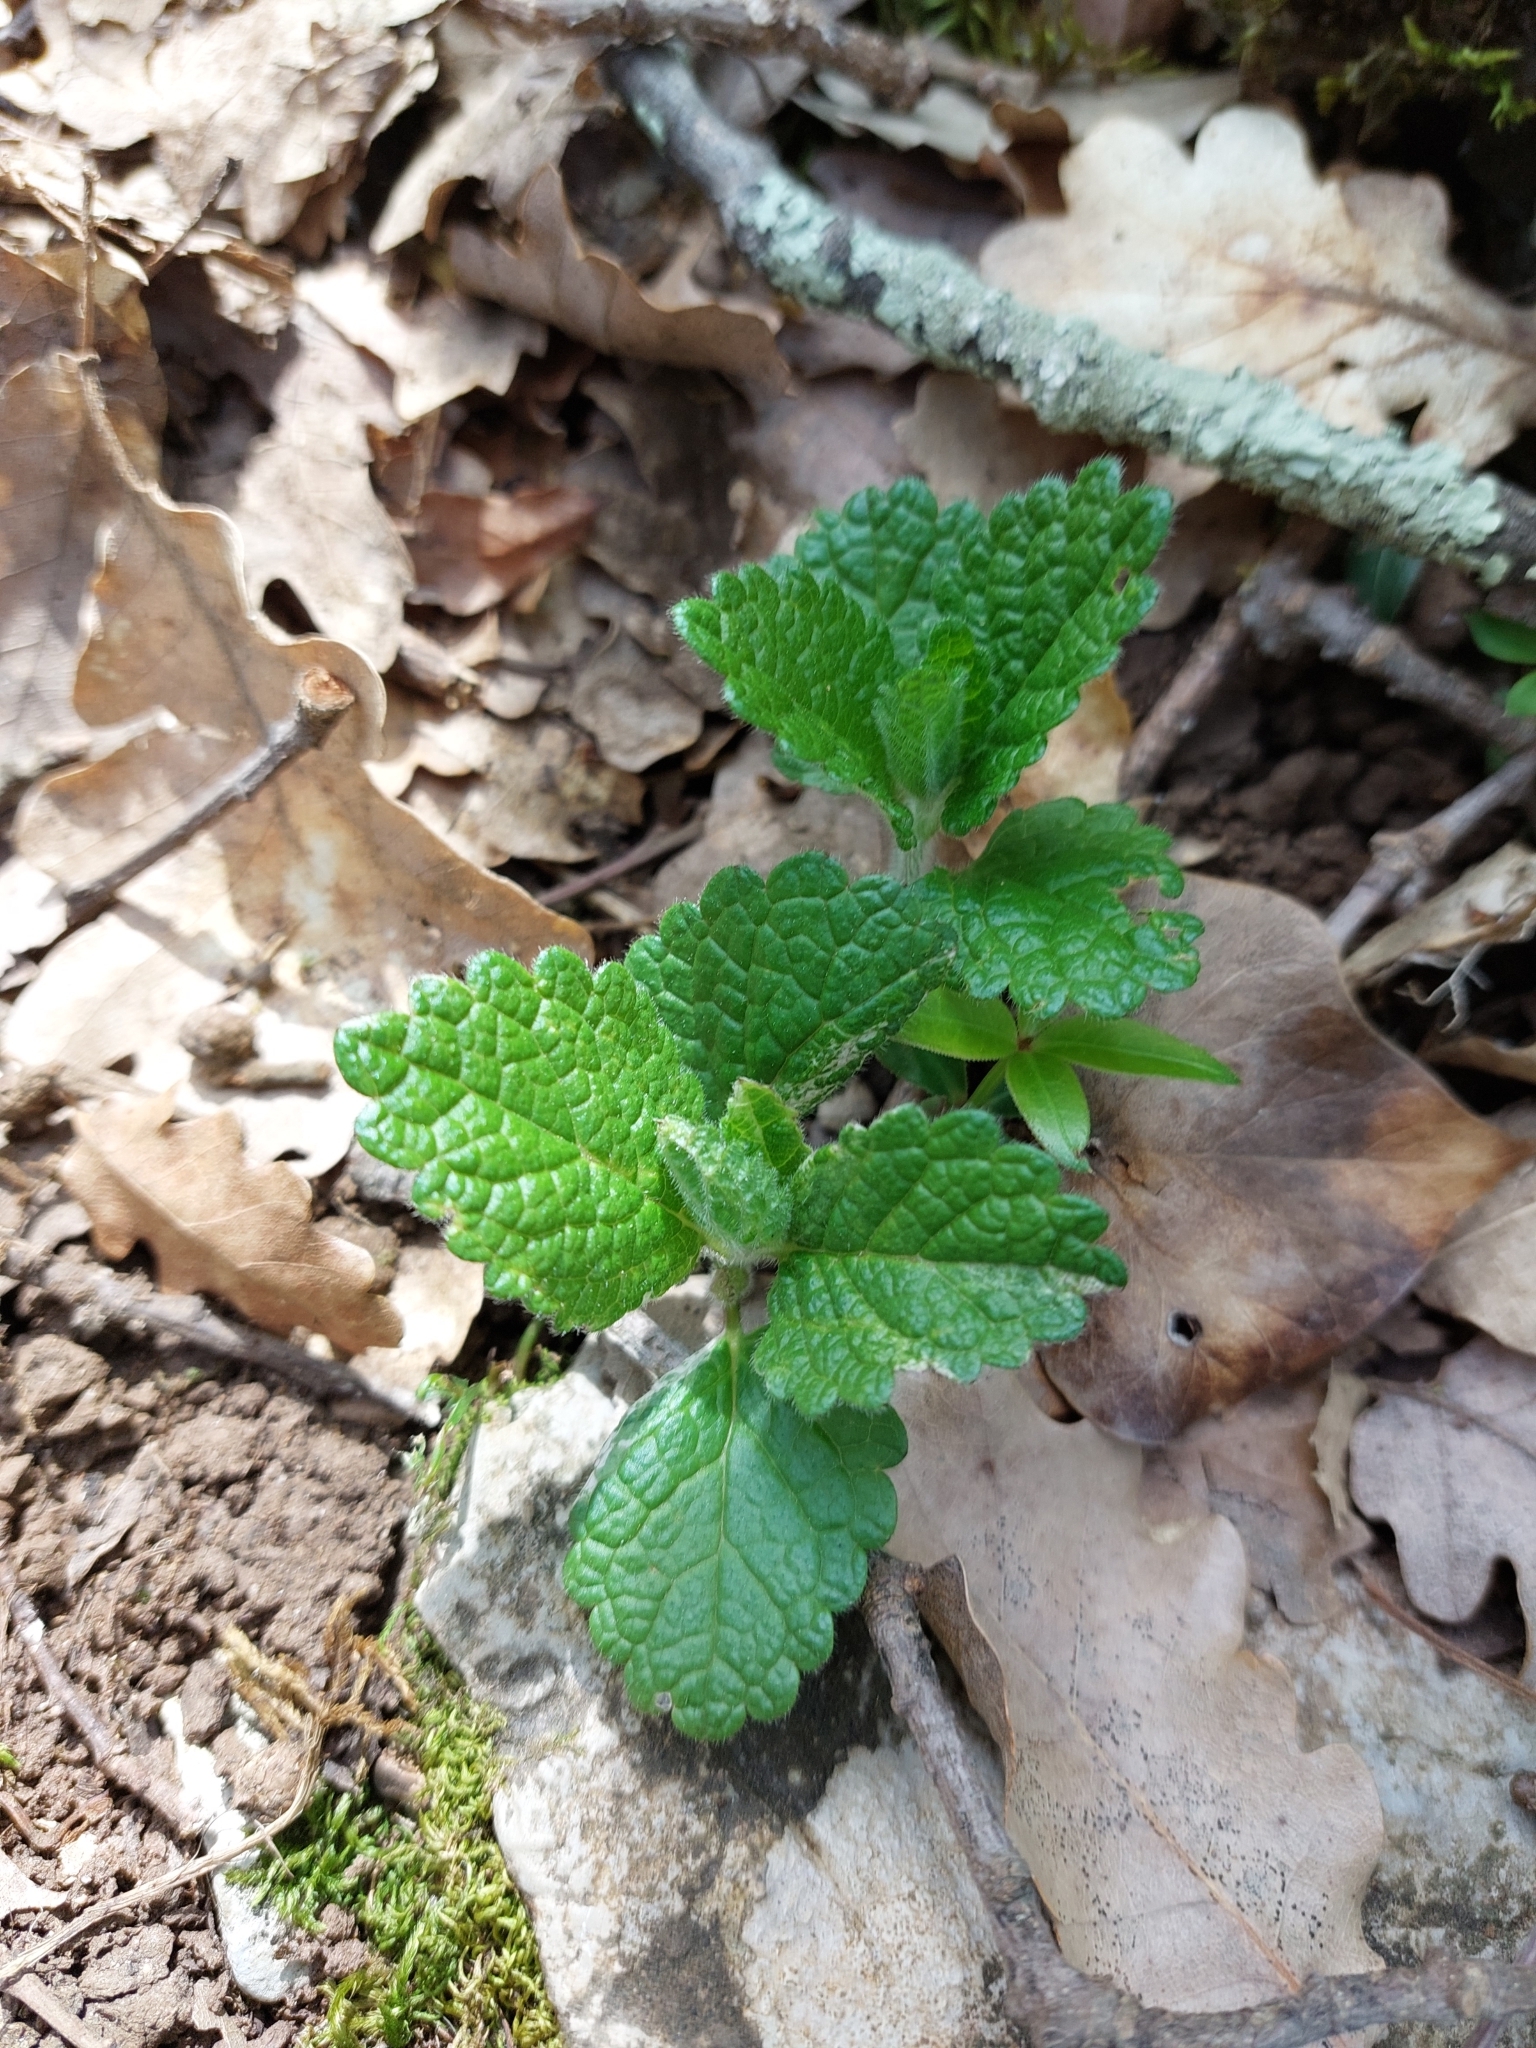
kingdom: Plantae
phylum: Tracheophyta
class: Magnoliopsida
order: Lamiales
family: Lamiaceae
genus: Melittis
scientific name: Melittis melissophyllum
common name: Bastard balm
